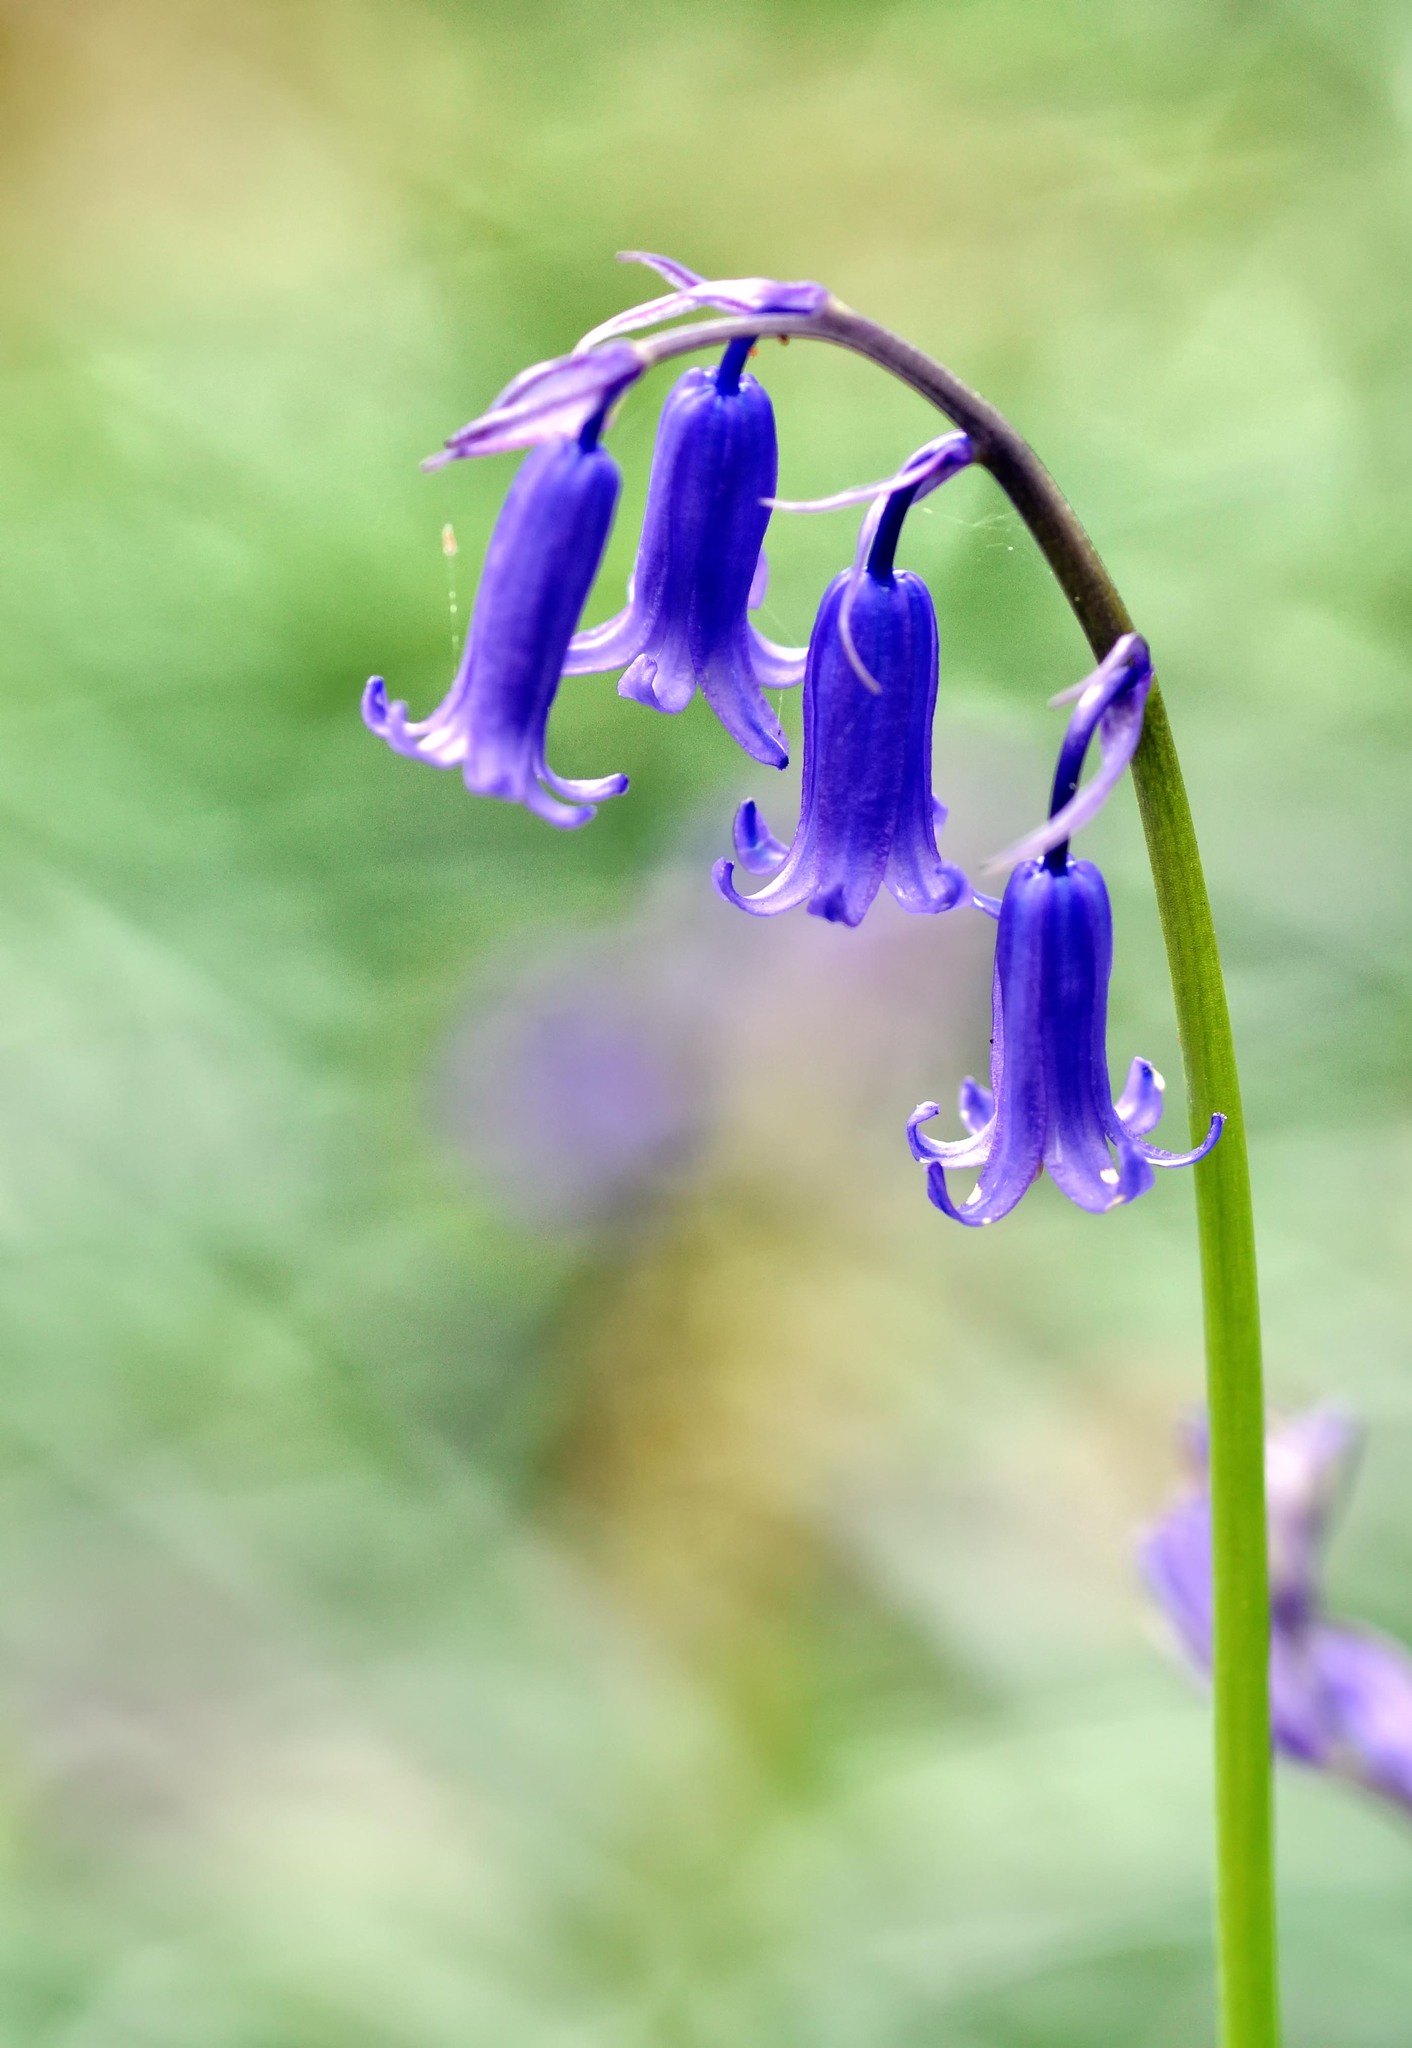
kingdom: Plantae
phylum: Tracheophyta
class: Liliopsida
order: Asparagales
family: Asparagaceae
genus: Hyacinthoides
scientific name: Hyacinthoides non-scripta
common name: Bluebell
